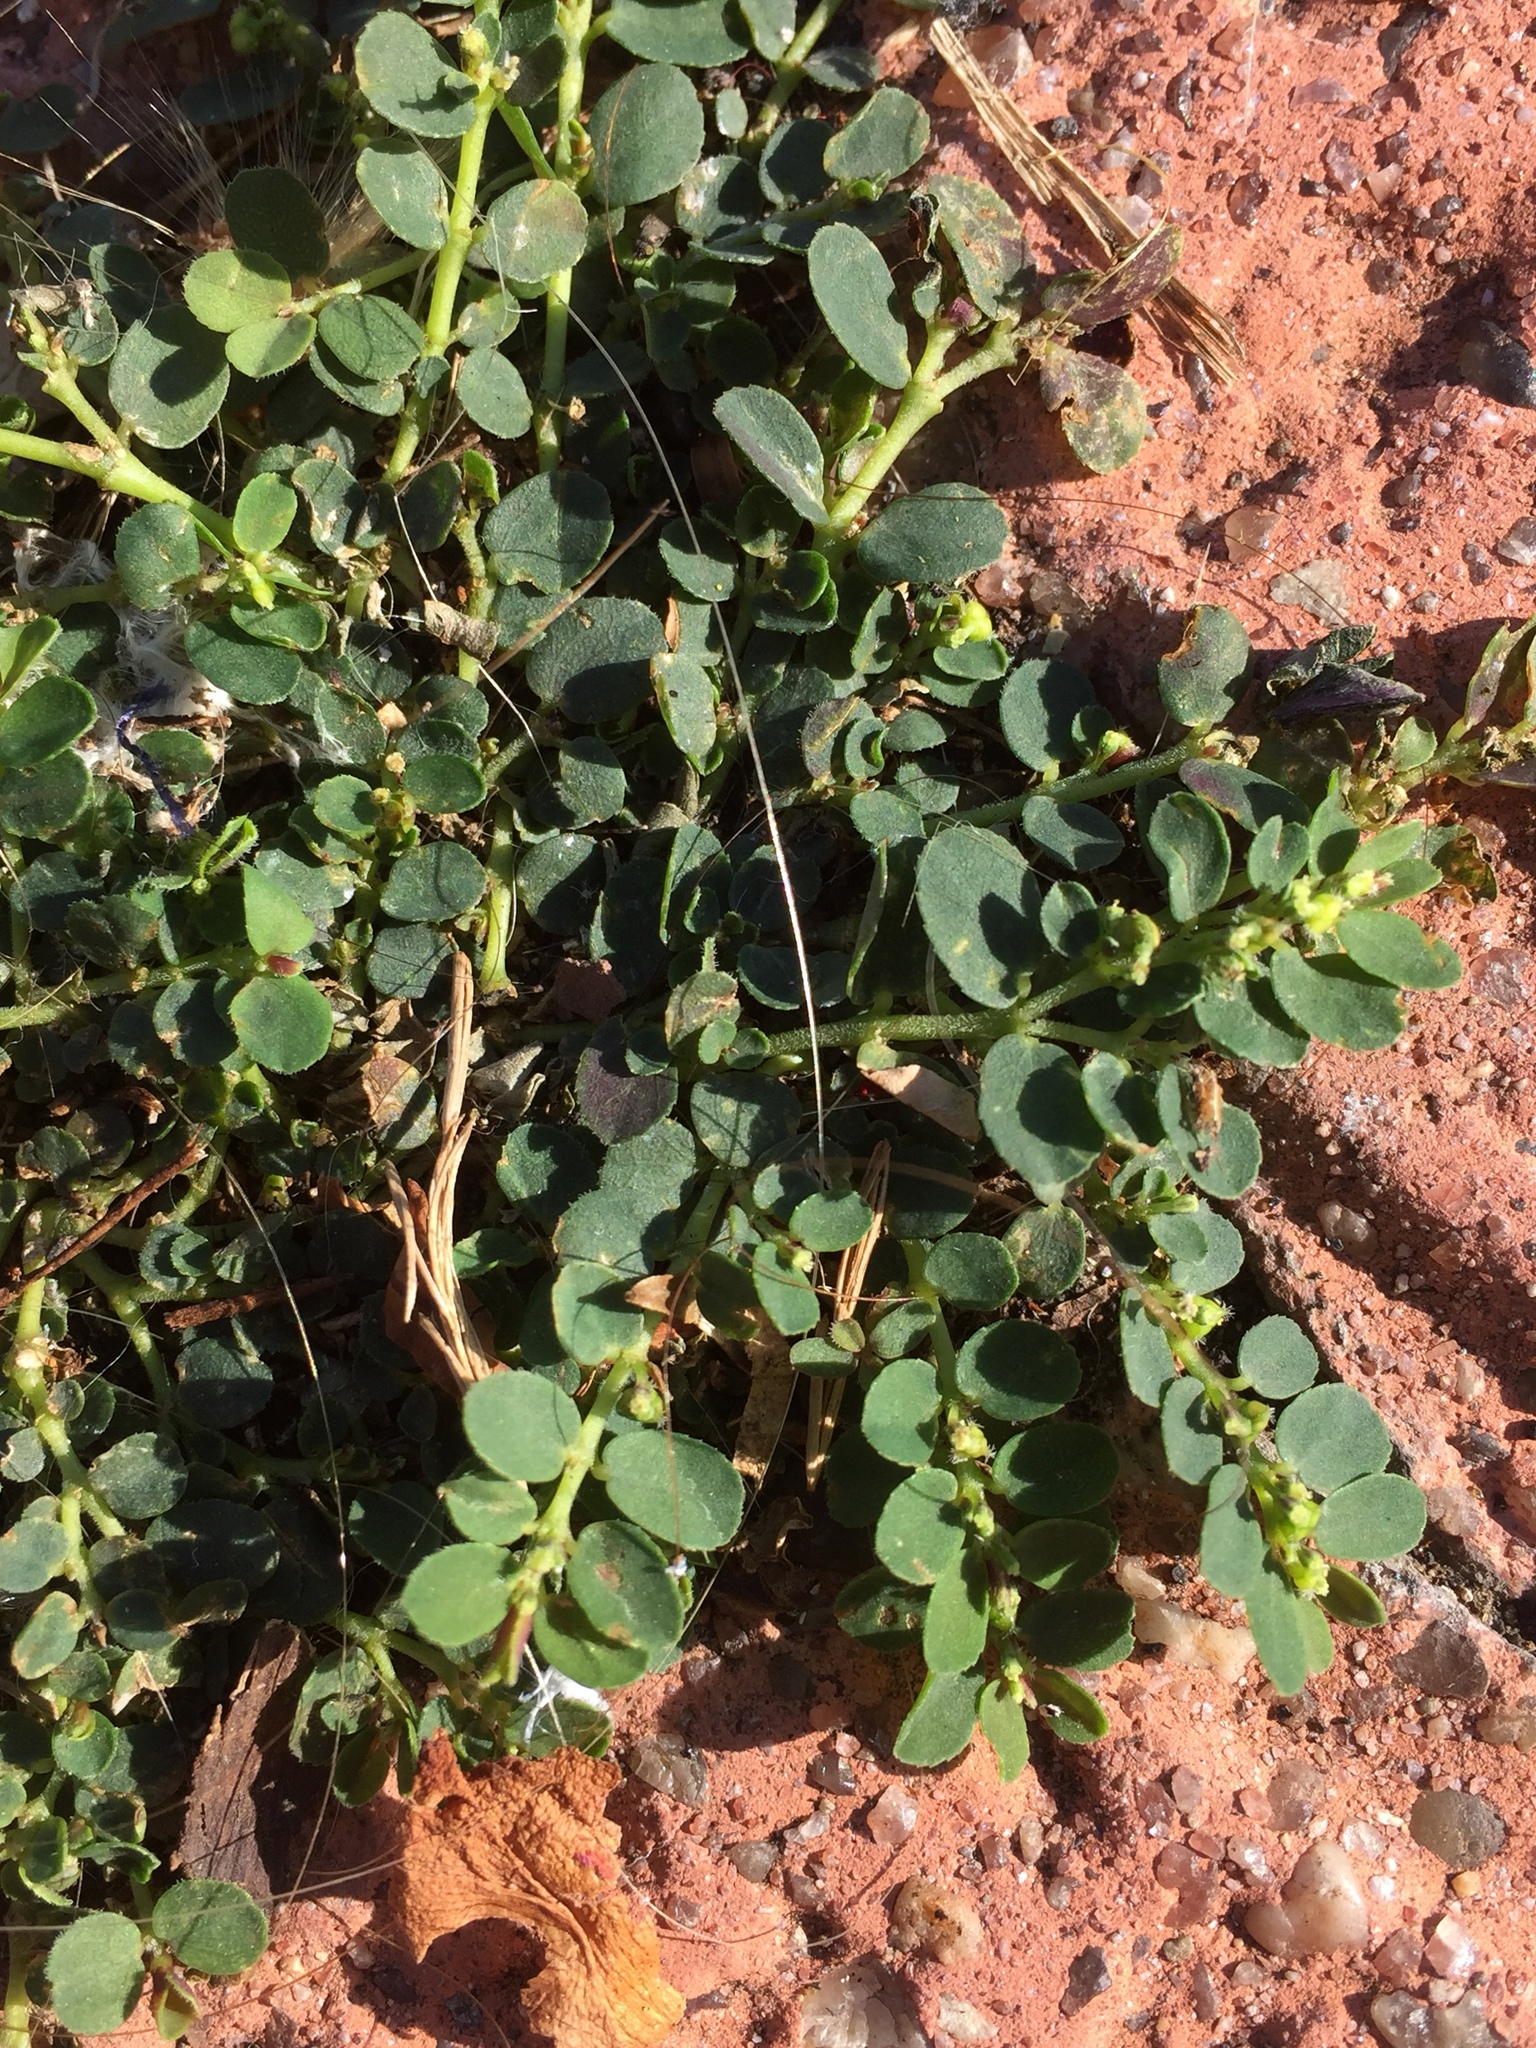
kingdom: Plantae
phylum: Tracheophyta
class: Magnoliopsida
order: Malpighiales
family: Euphorbiaceae
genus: Euphorbia
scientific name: Euphorbia prostrata
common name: Prostrate sandmat
